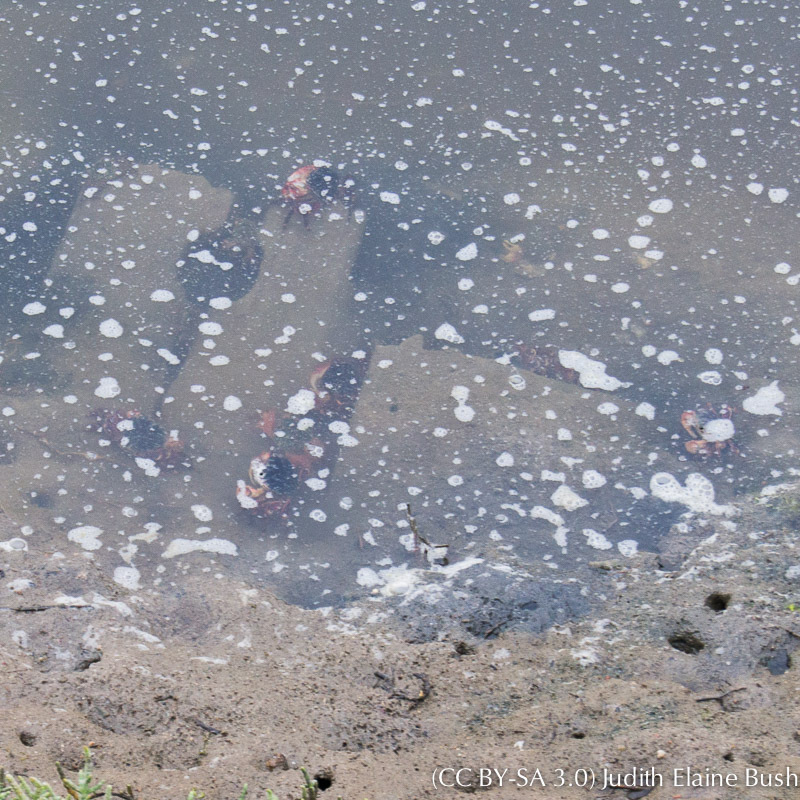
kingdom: Animalia
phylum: Arthropoda
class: Malacostraca
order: Decapoda
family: Grapsidae
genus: Pachygrapsus
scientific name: Pachygrapsus crassipes
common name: Striped shore crab
